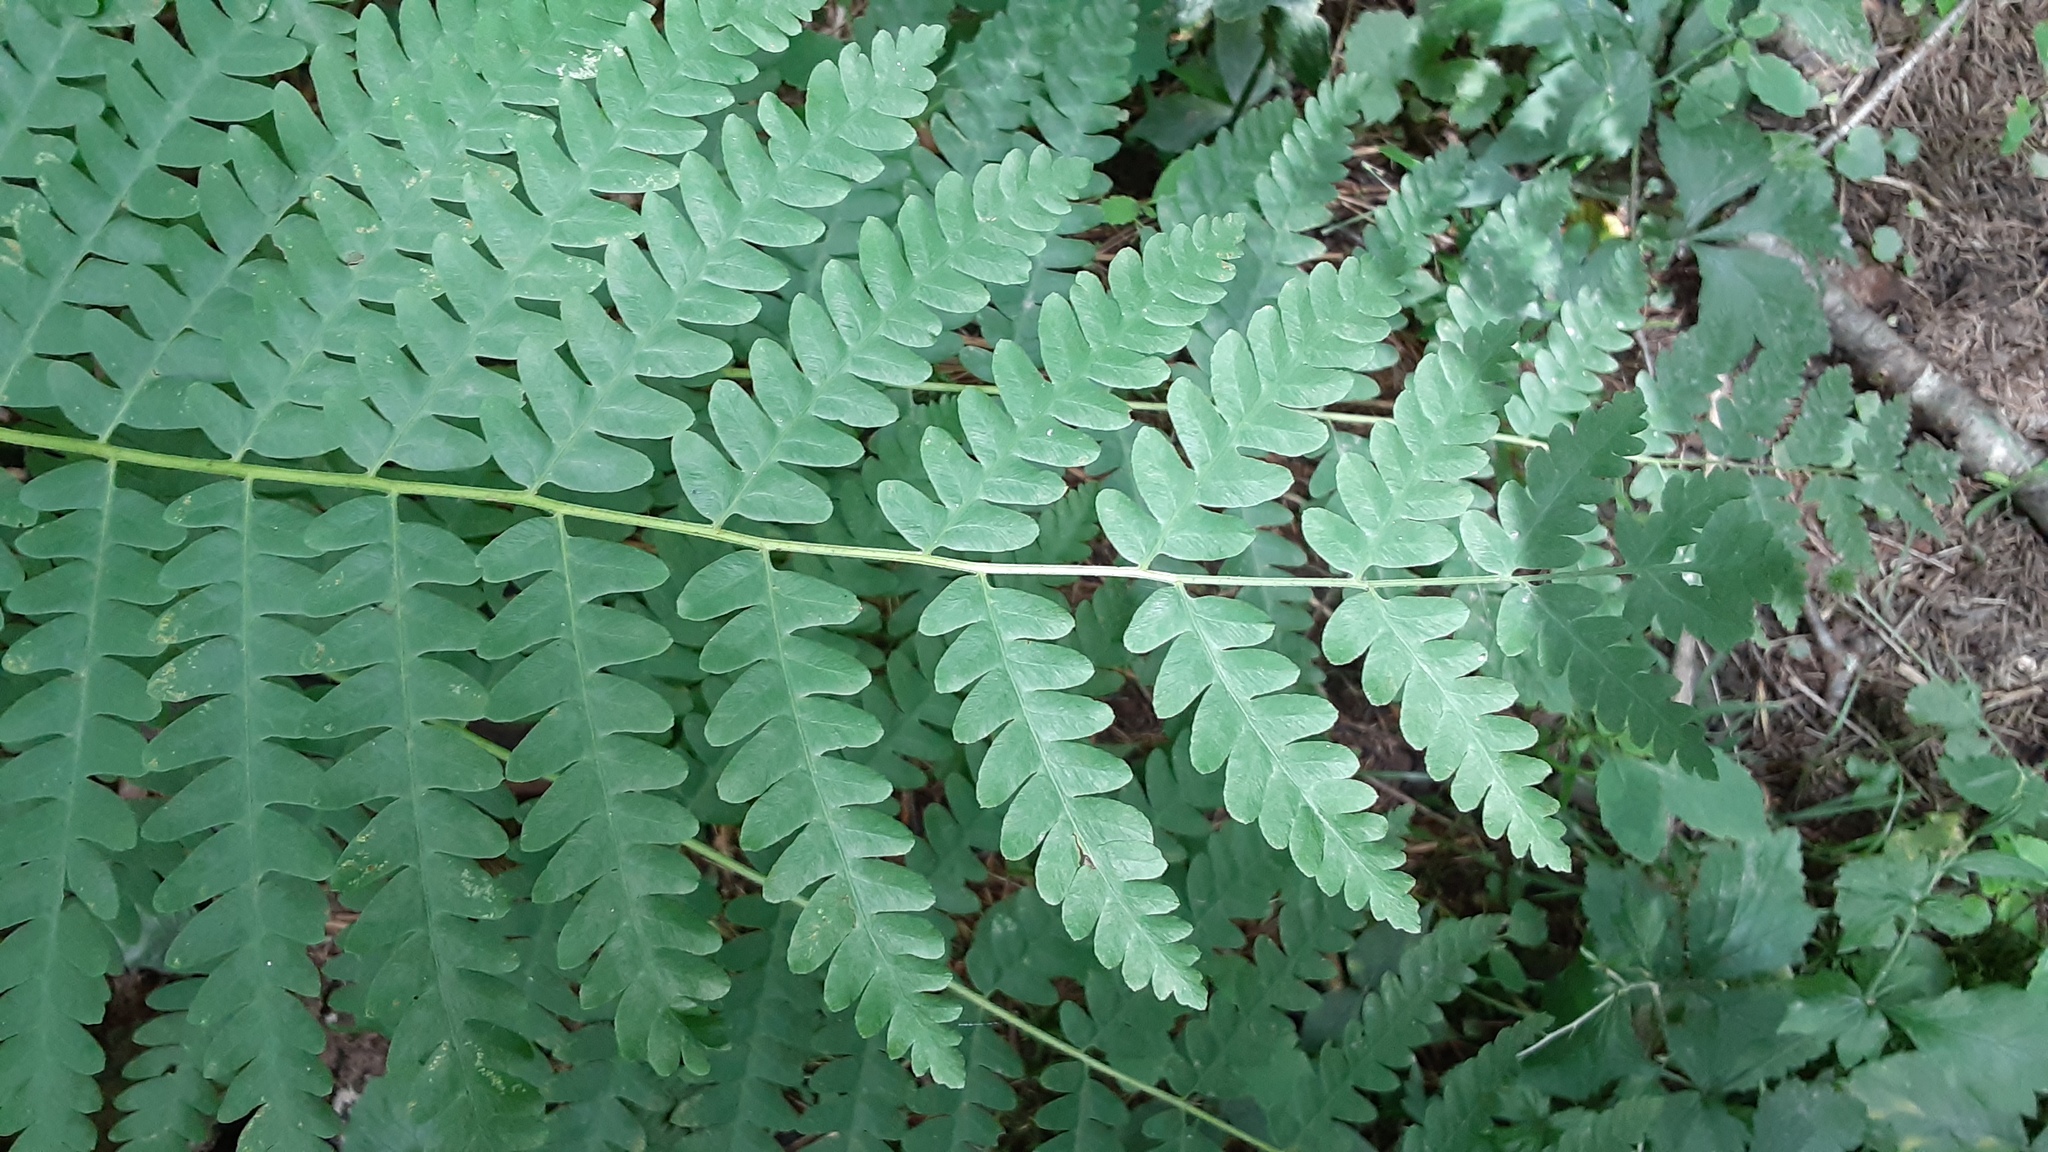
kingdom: Plantae
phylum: Tracheophyta
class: Polypodiopsida
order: Osmundales
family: Osmundaceae
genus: Claytosmunda
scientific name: Claytosmunda claytoniana
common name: Clayton's fern
